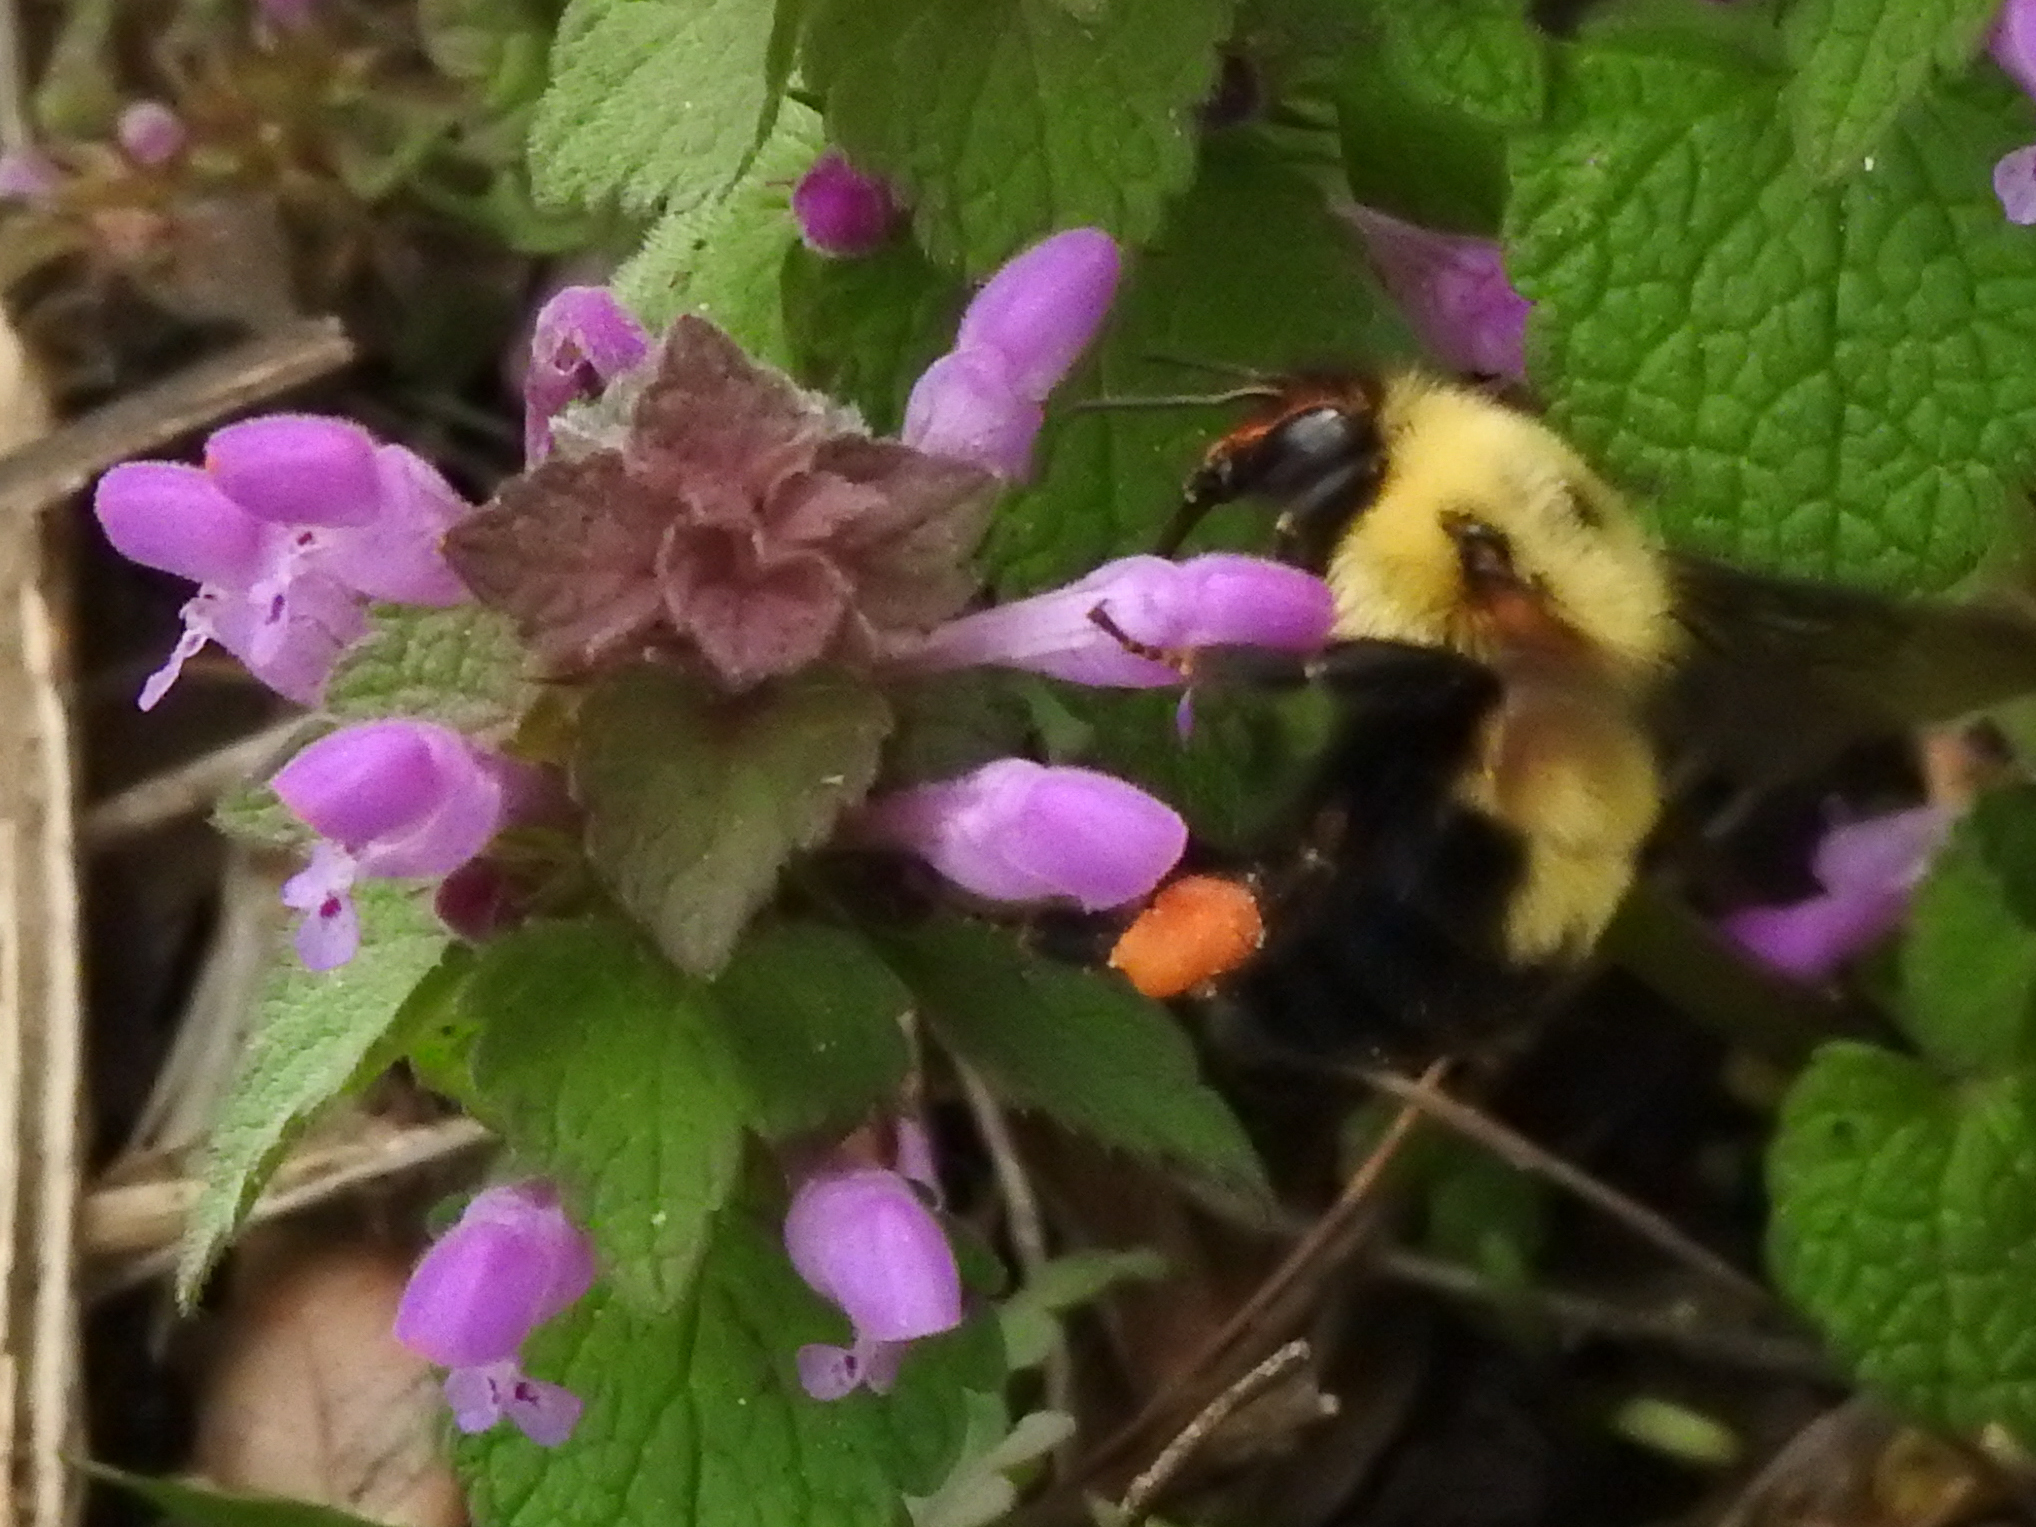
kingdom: Animalia
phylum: Arthropoda
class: Insecta
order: Hymenoptera
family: Apidae
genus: Bombus
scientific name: Bombus bimaculatus
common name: Two-spotted bumble bee
